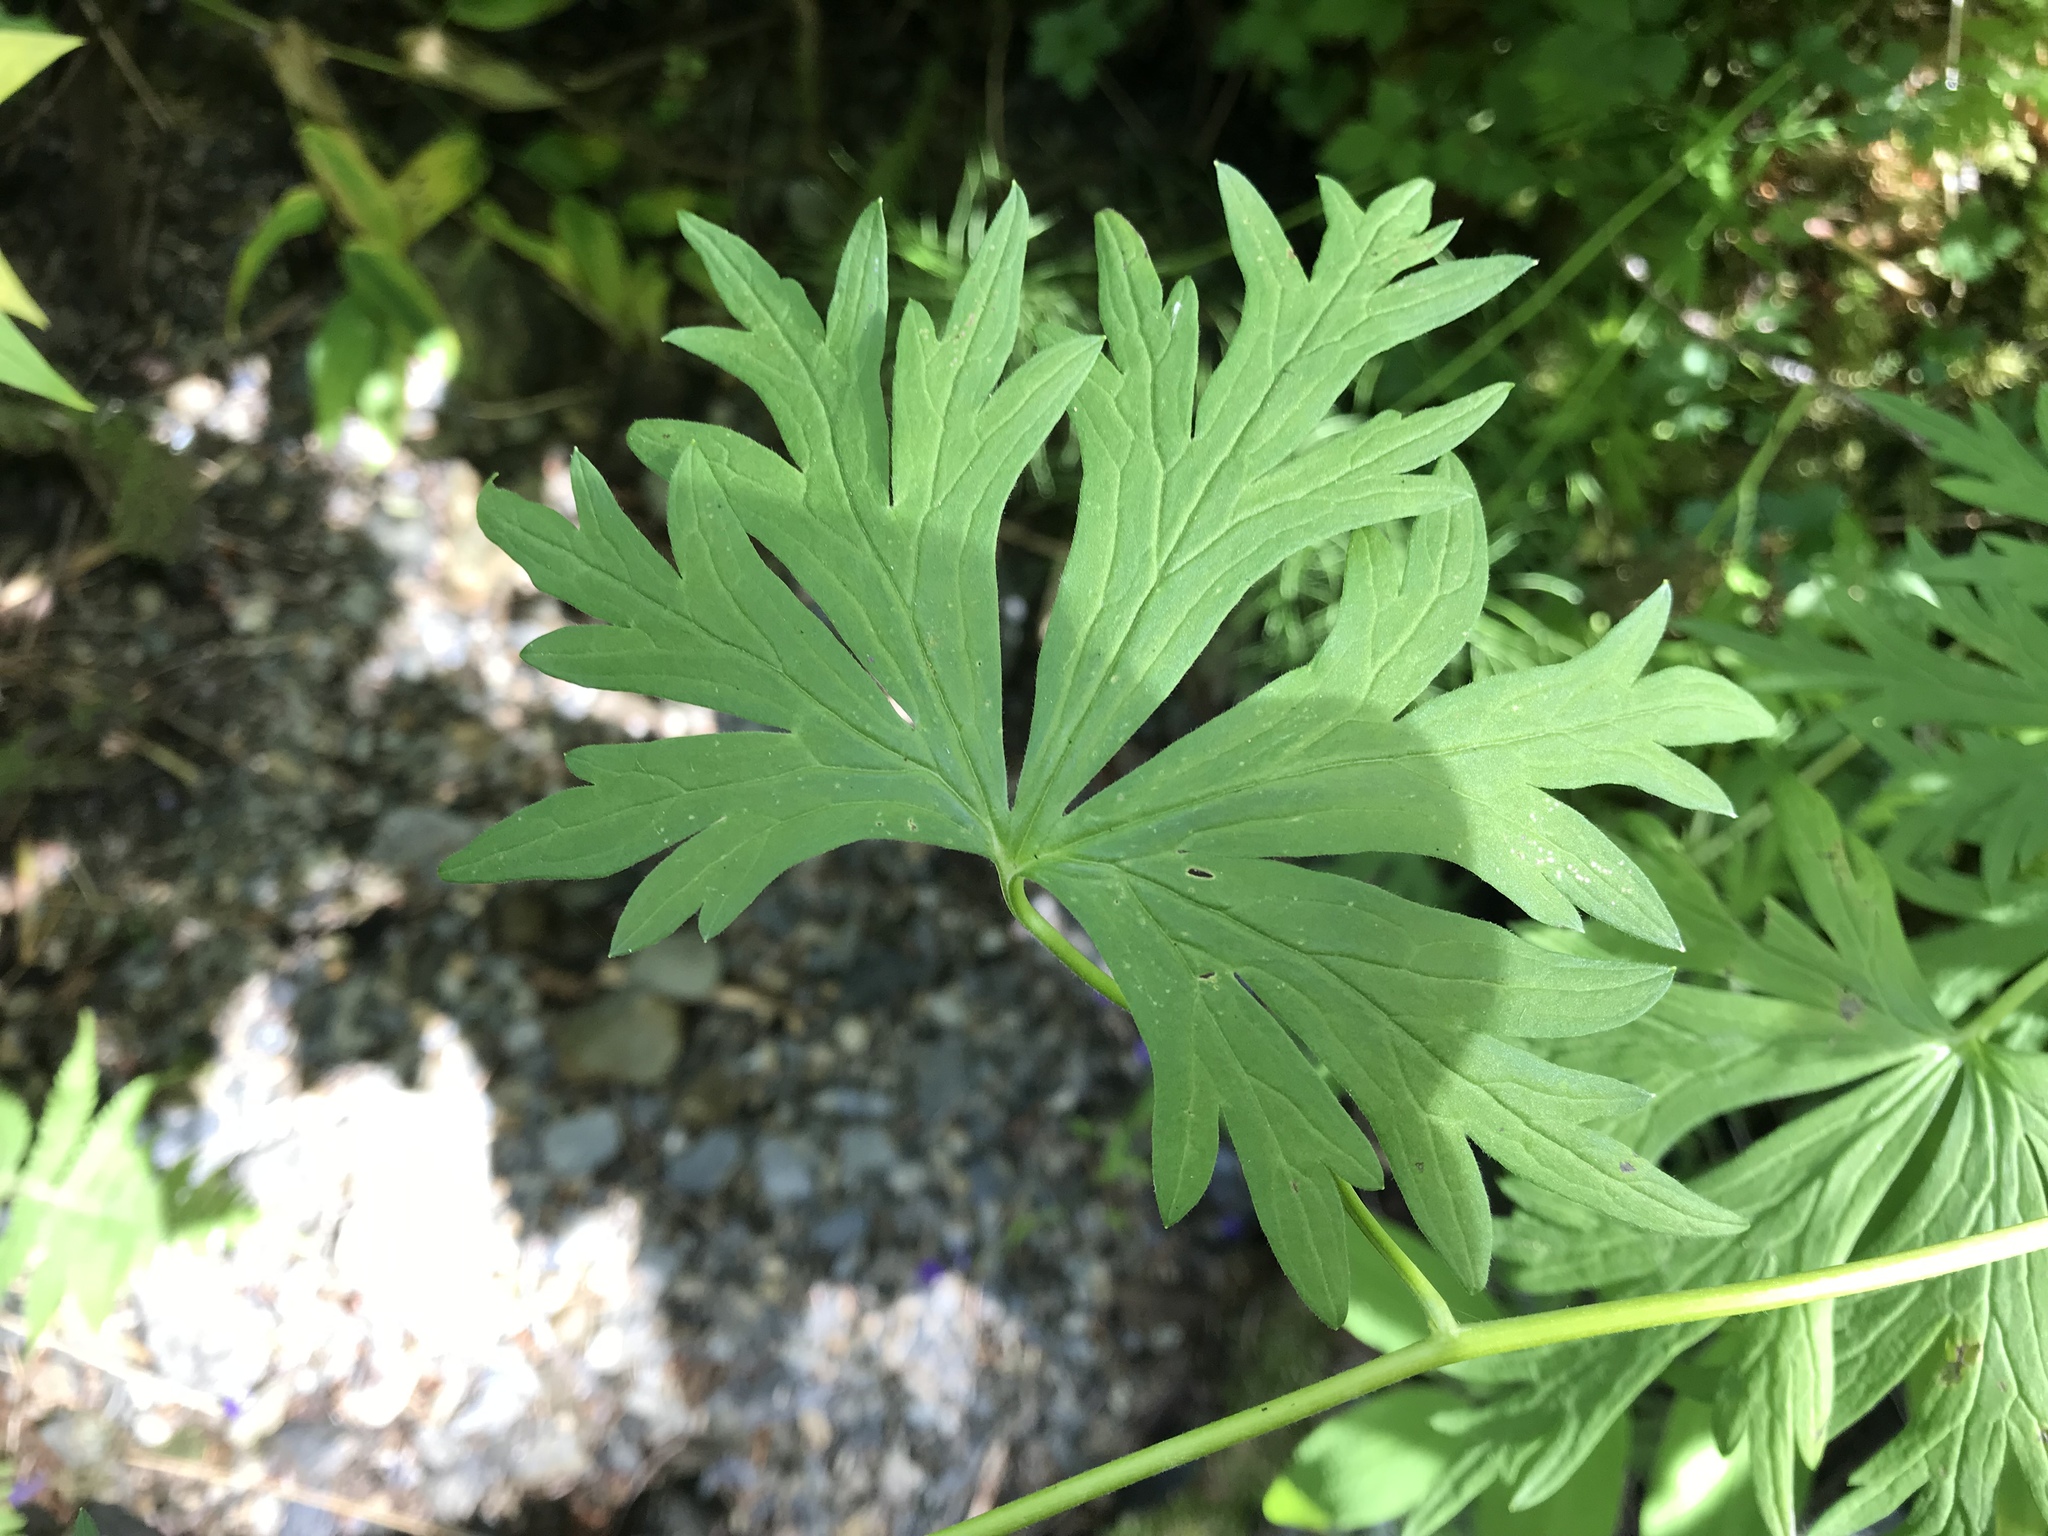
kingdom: Plantae
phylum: Tracheophyta
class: Magnoliopsida
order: Ranunculales
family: Ranunculaceae
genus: Aconitum
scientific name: Aconitum delphiniifolium
